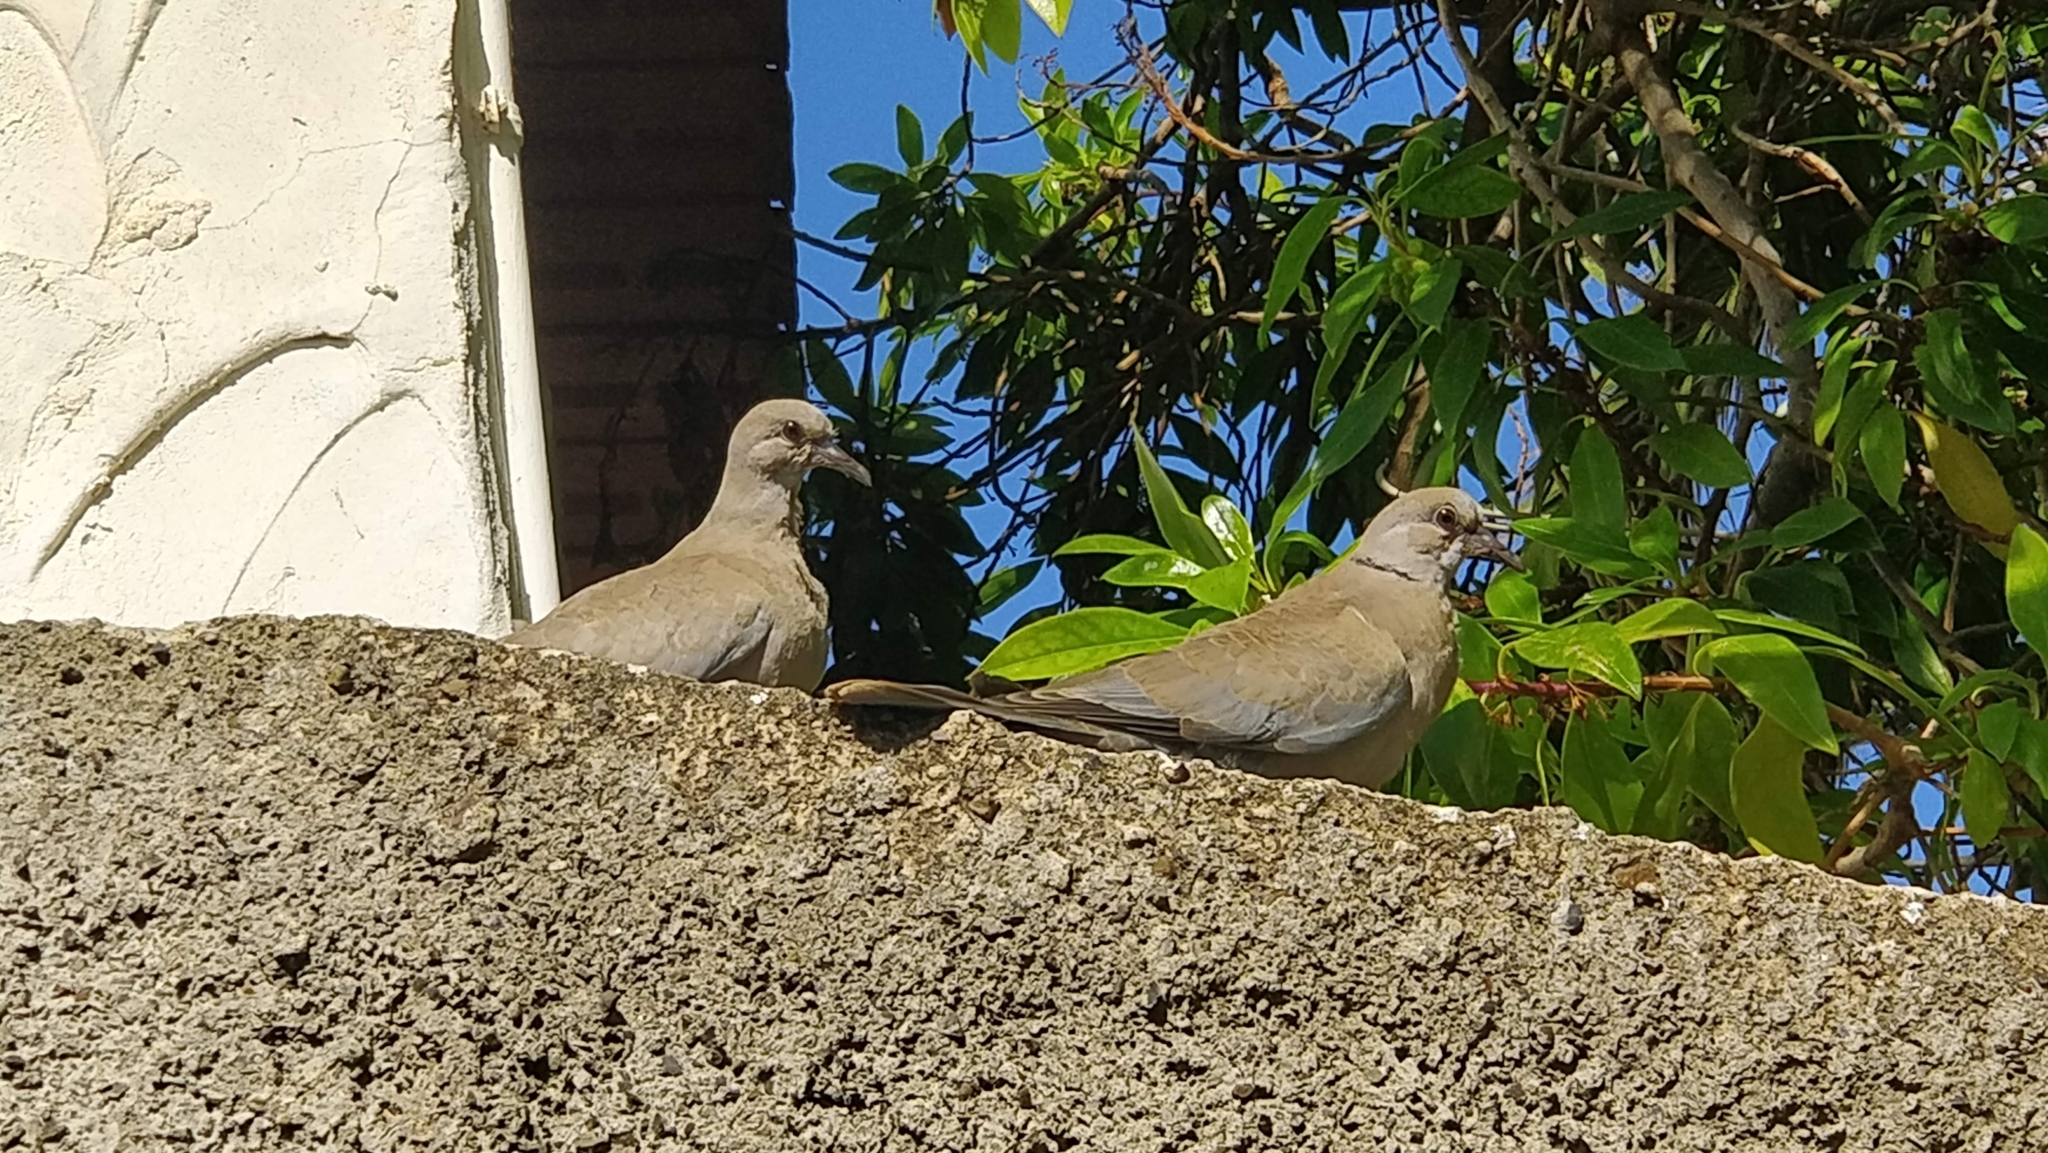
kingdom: Animalia
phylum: Chordata
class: Aves
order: Columbiformes
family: Columbidae
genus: Streptopelia
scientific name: Streptopelia decaocto
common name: Eurasian collared dove
